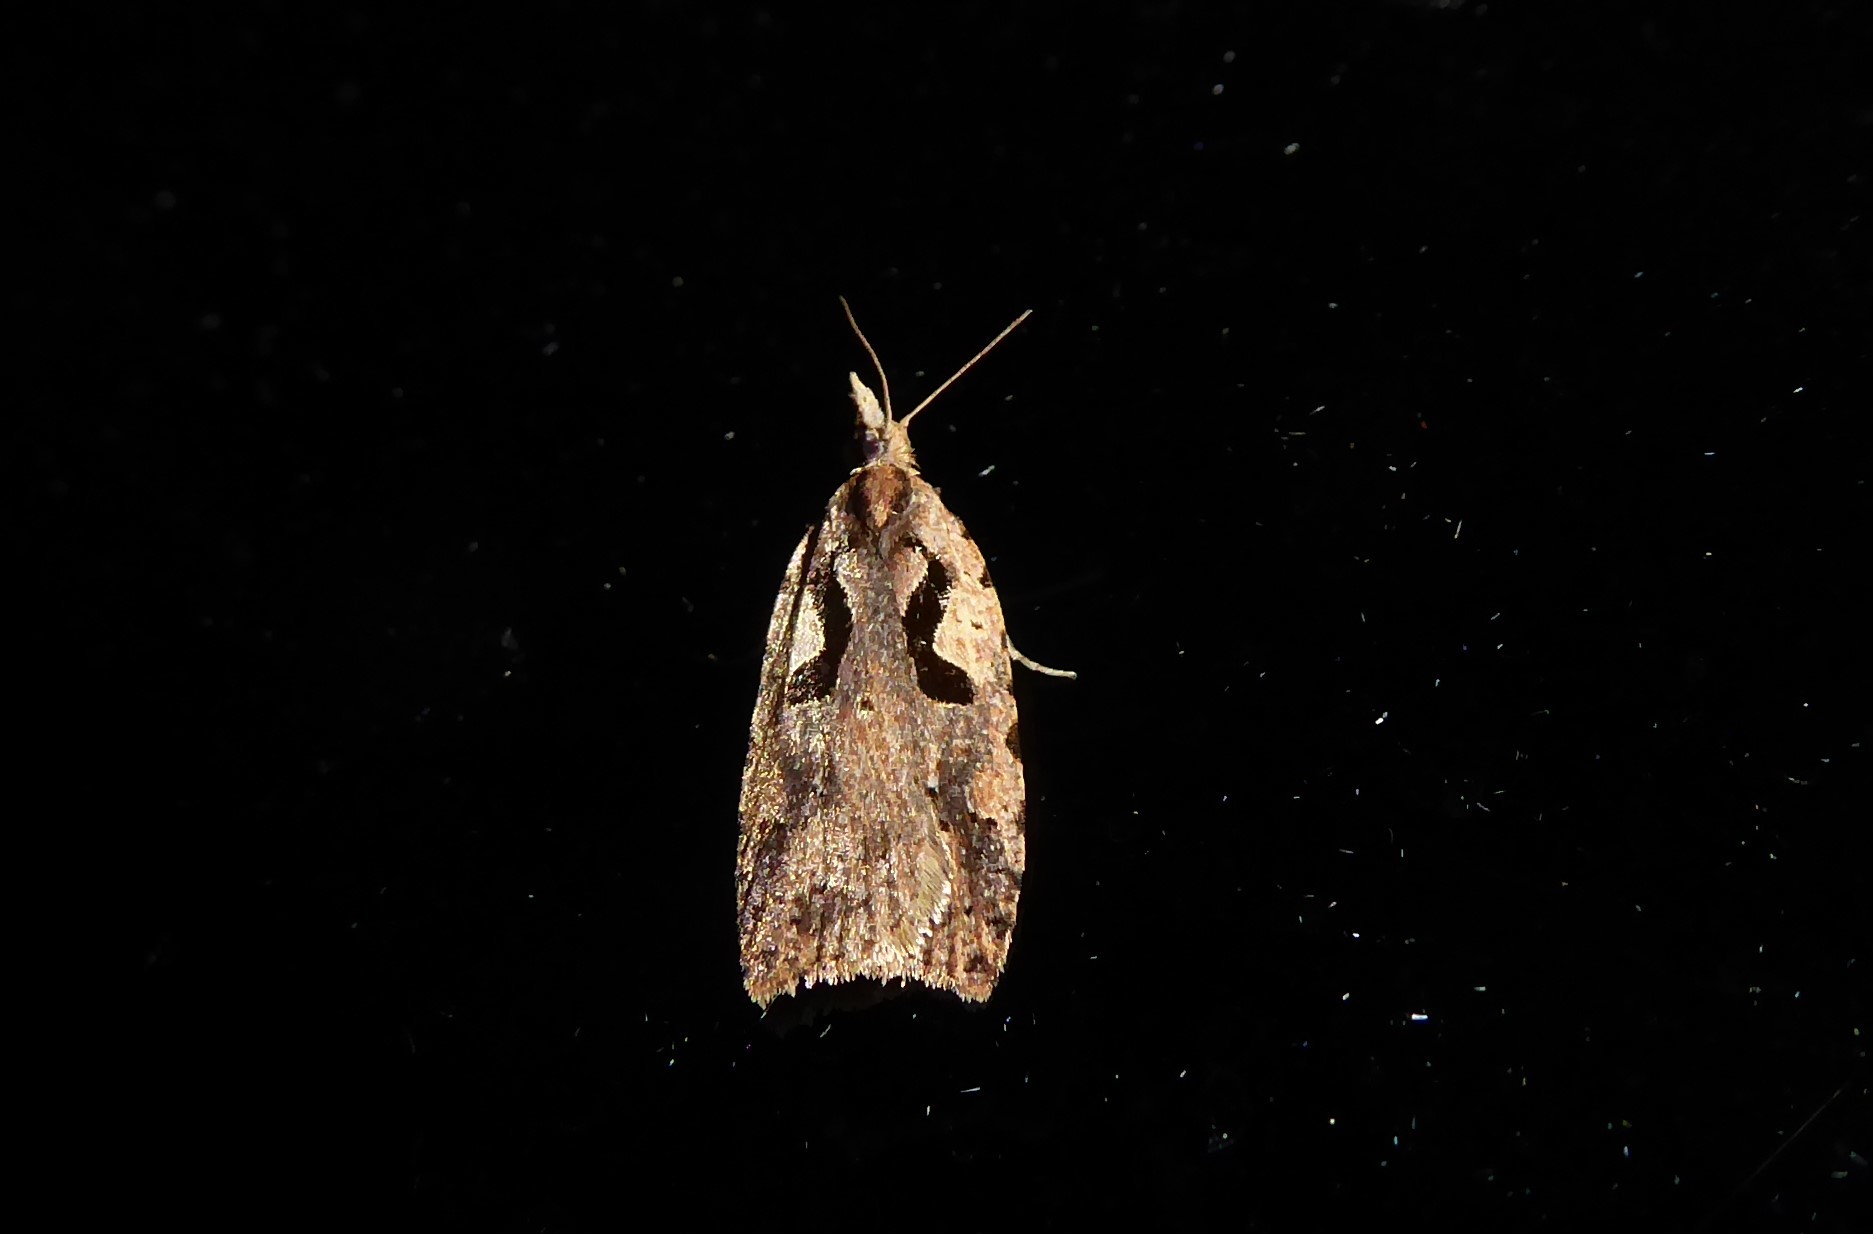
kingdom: Animalia
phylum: Arthropoda
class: Insecta
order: Lepidoptera
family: Tortricidae
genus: Cnephasia
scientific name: Cnephasia jactatana
